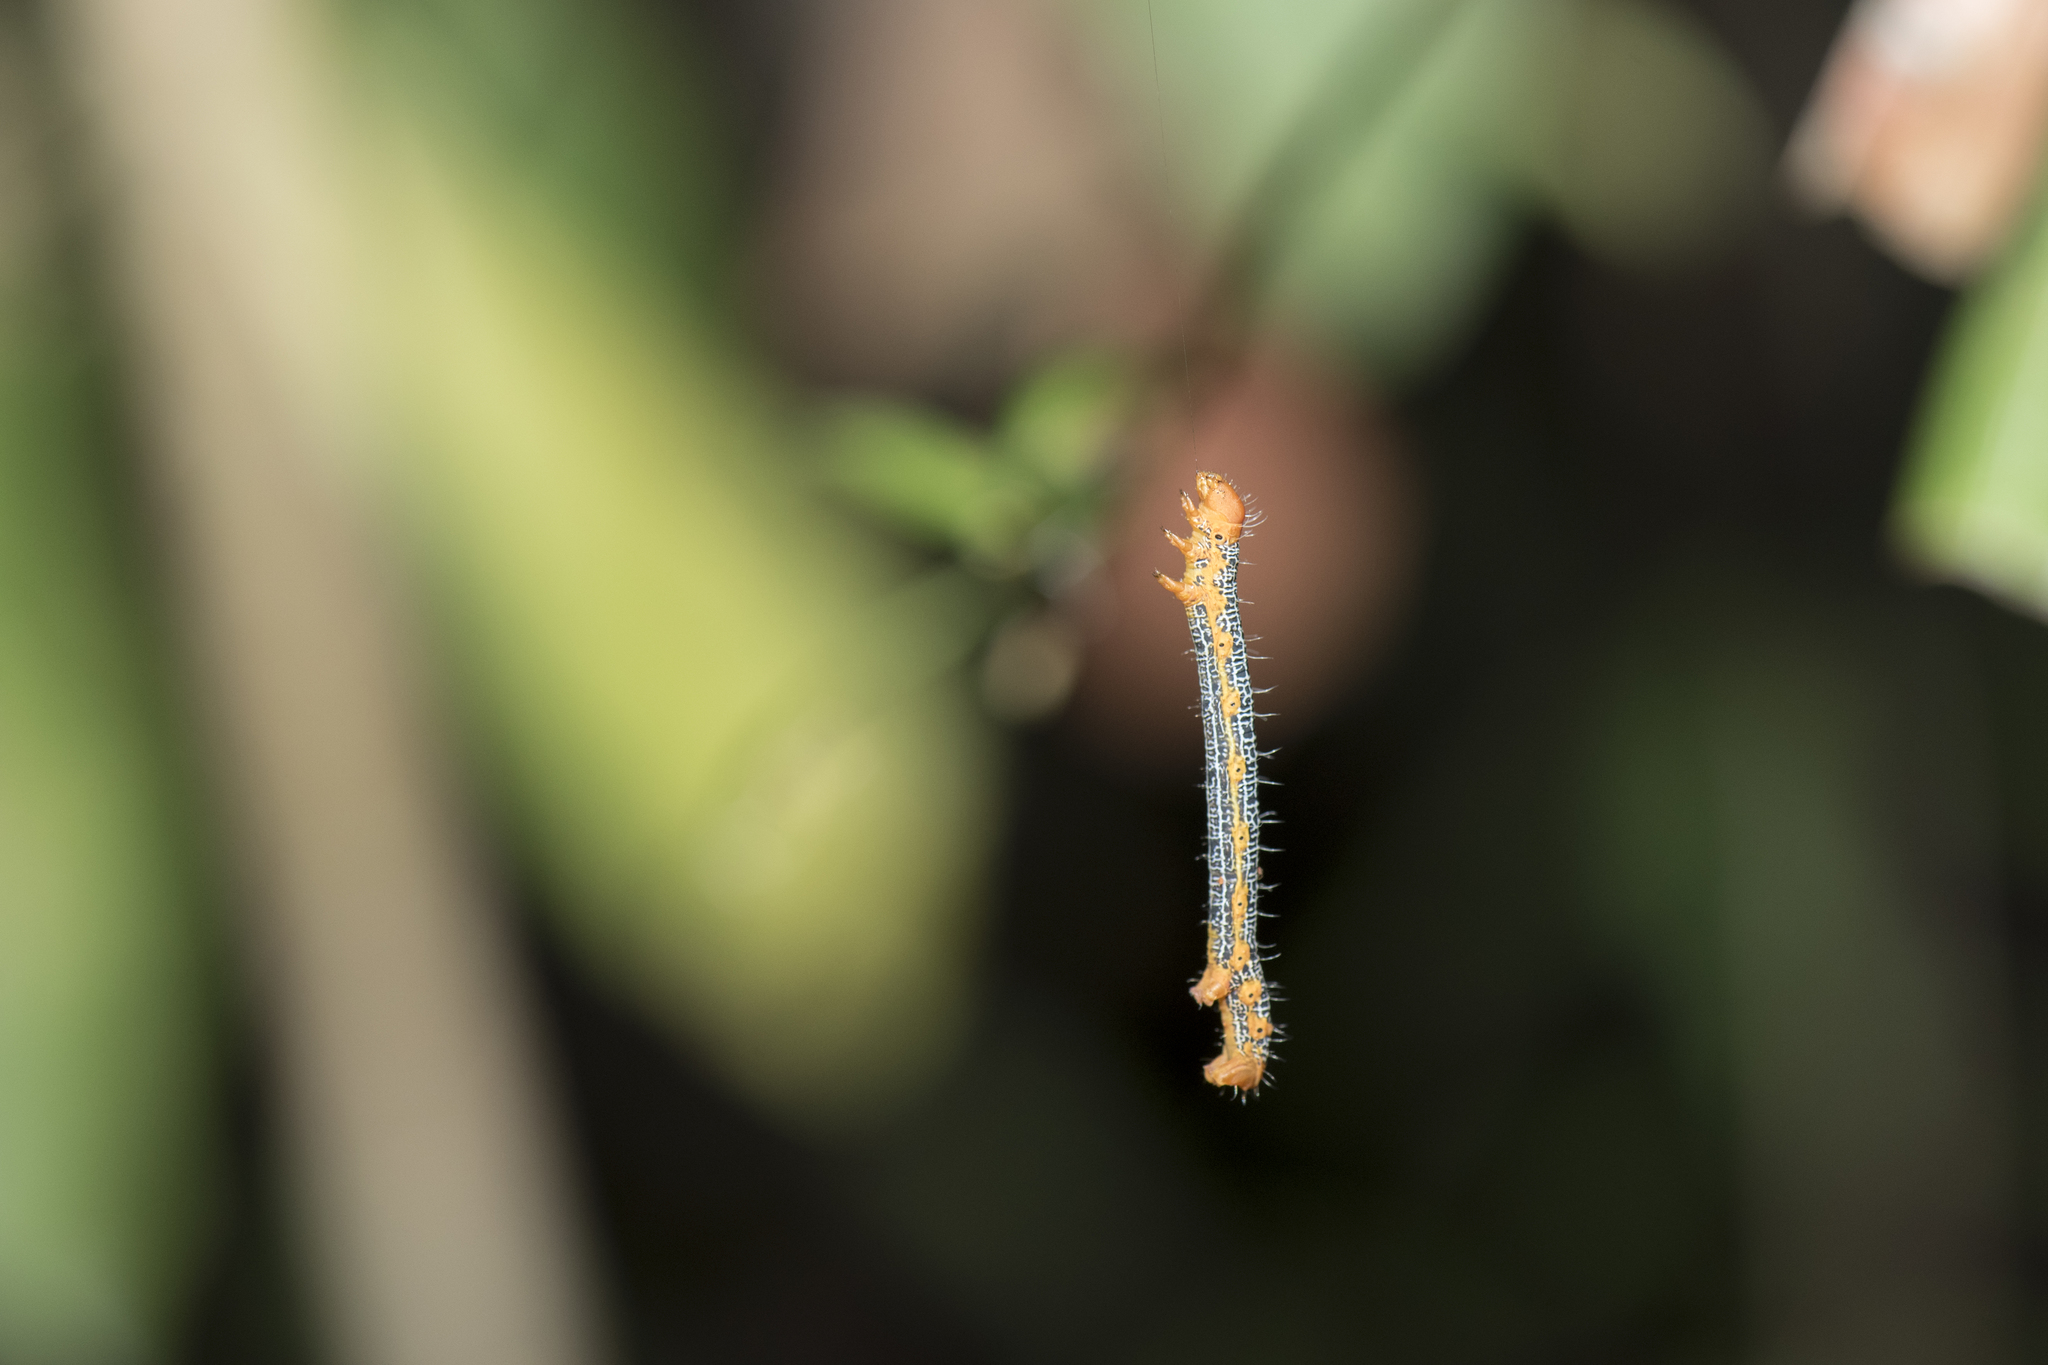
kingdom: Animalia
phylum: Arthropoda
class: Insecta
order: Lepidoptera
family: Geometridae
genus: Milionia
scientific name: Milionia basalis
